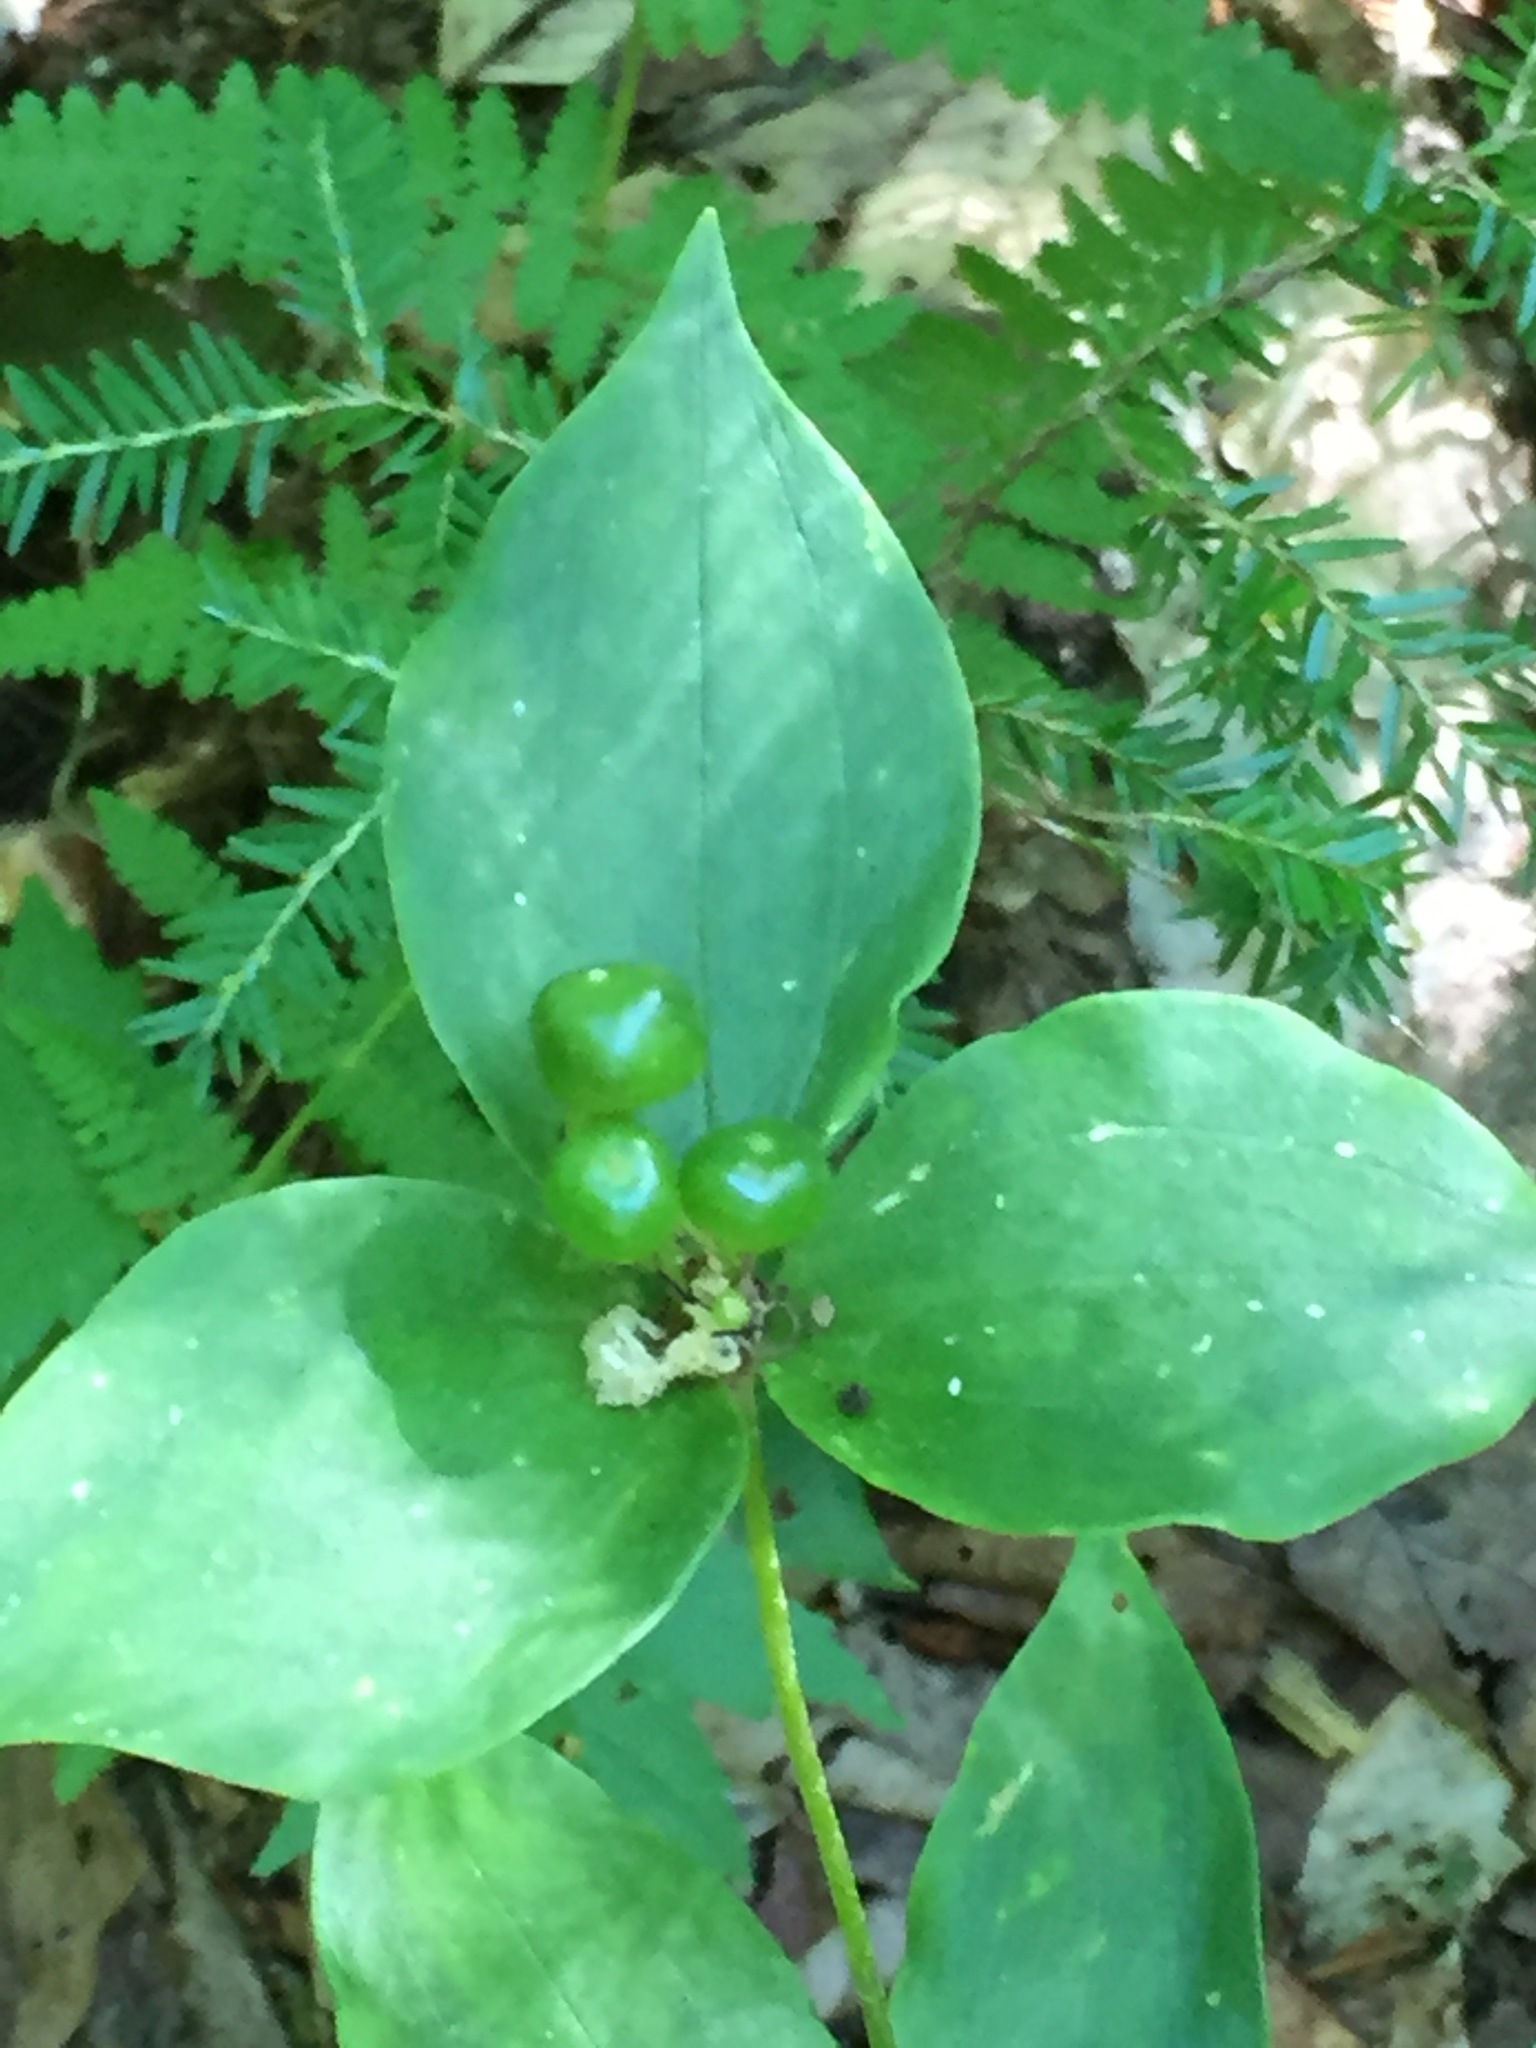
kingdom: Plantae
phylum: Tracheophyta
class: Liliopsida
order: Liliales
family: Liliaceae
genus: Medeola
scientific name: Medeola virginiana
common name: Indian cucumber-root
